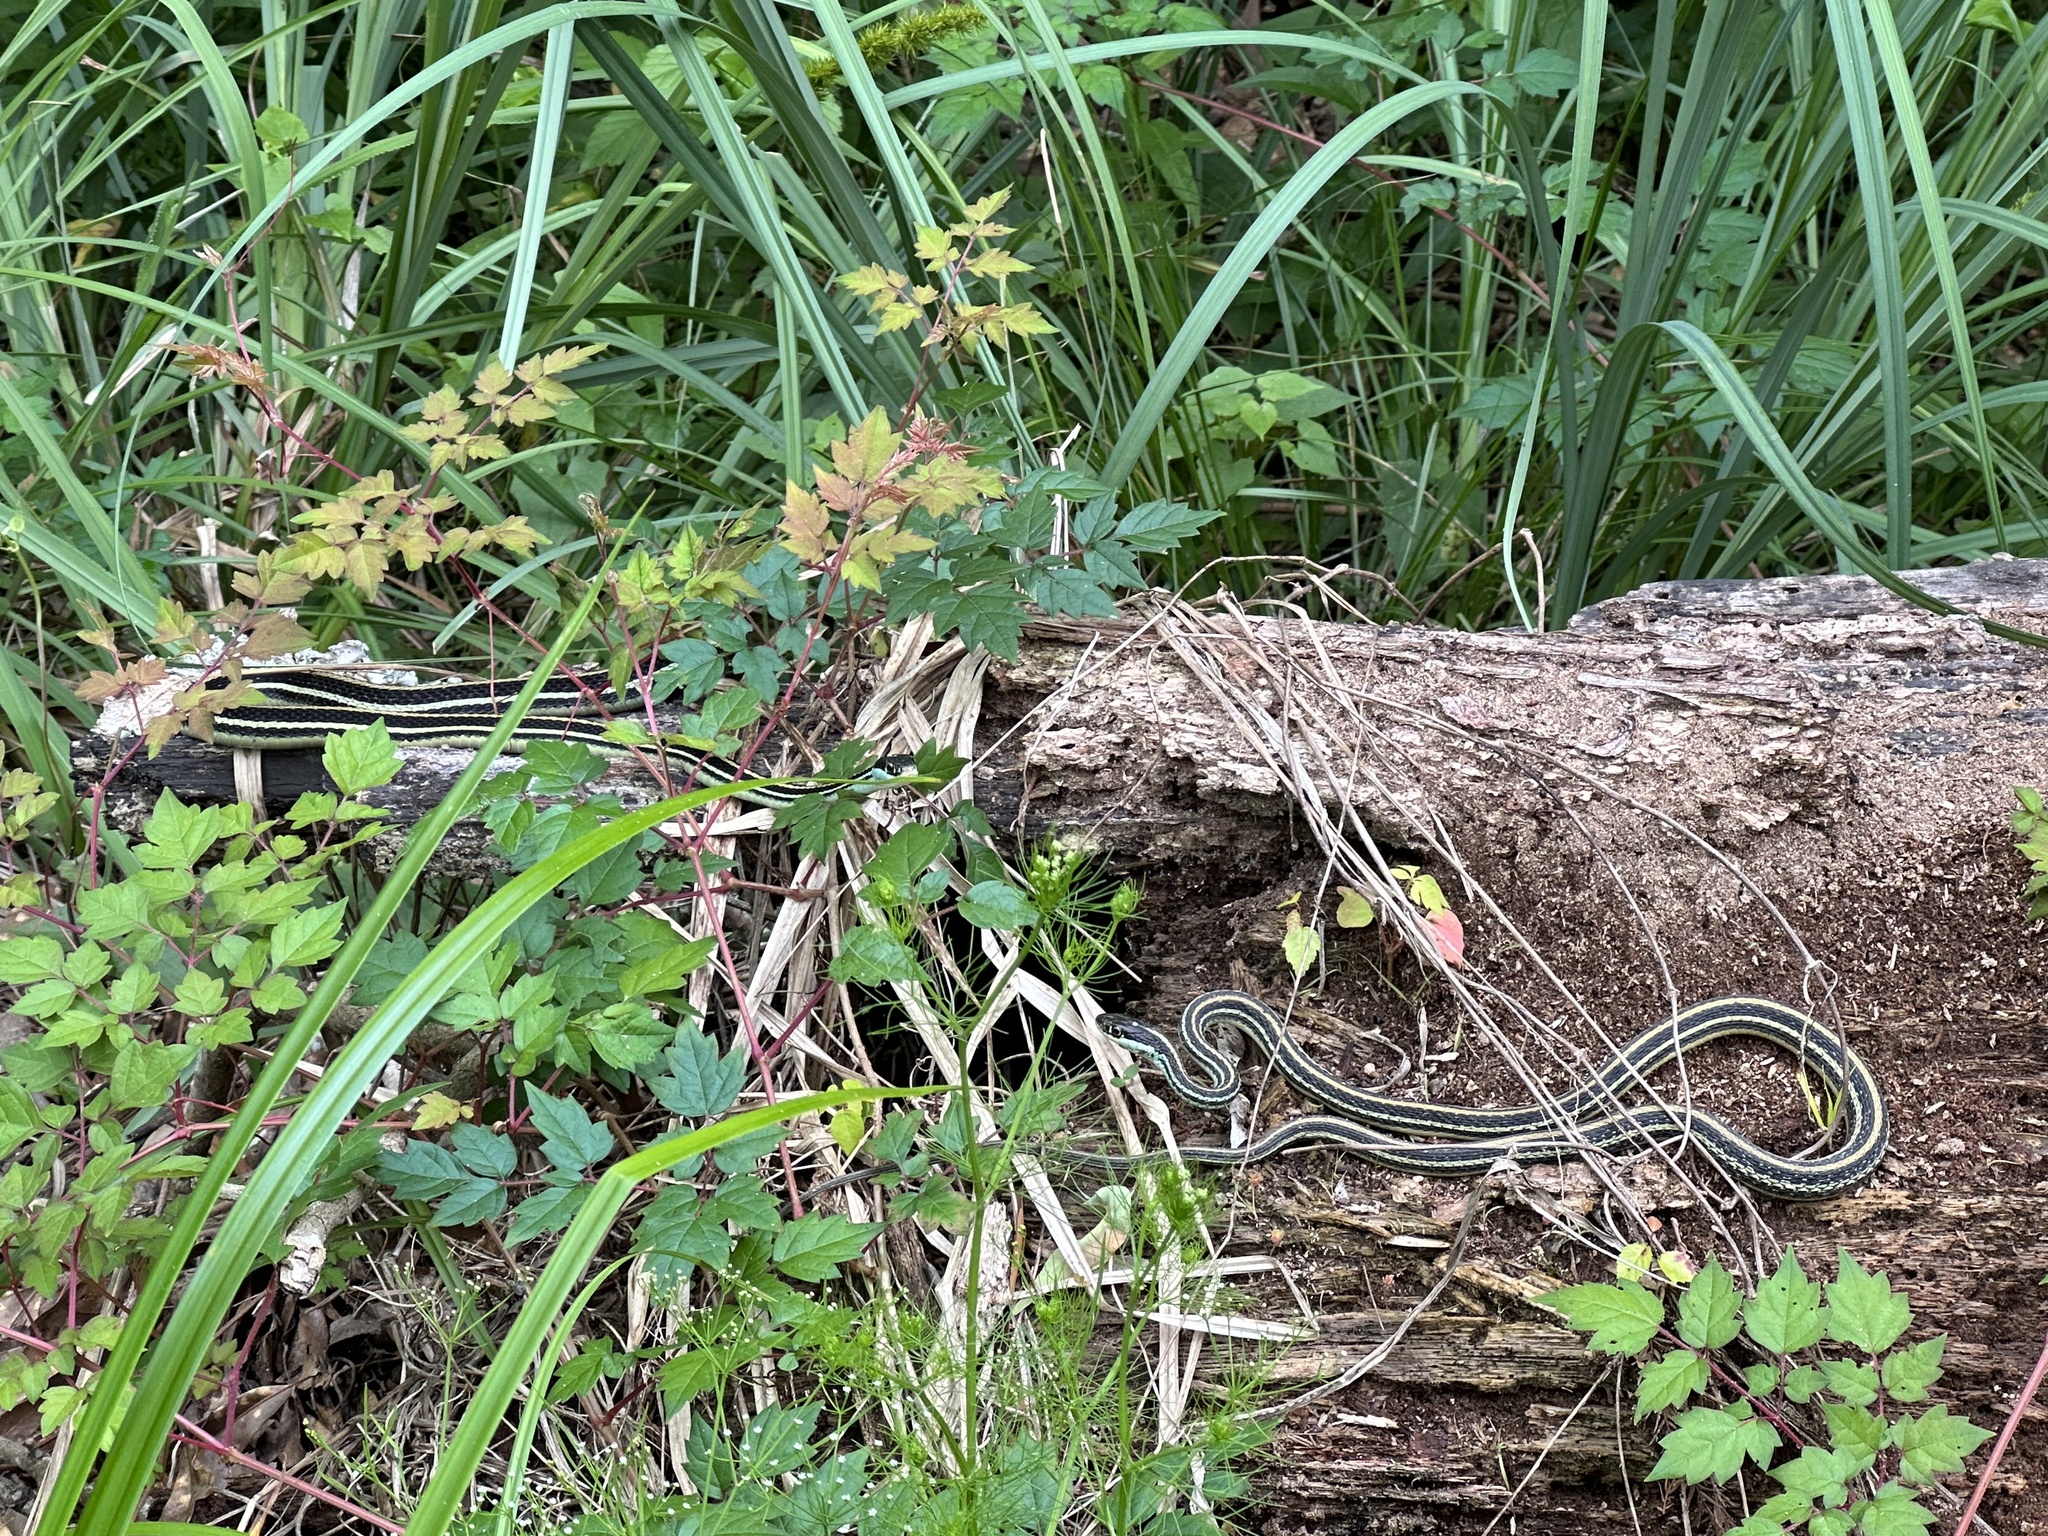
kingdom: Animalia
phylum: Chordata
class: Squamata
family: Colubridae
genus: Thamnophis
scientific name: Thamnophis proximus
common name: Western ribbon snake
